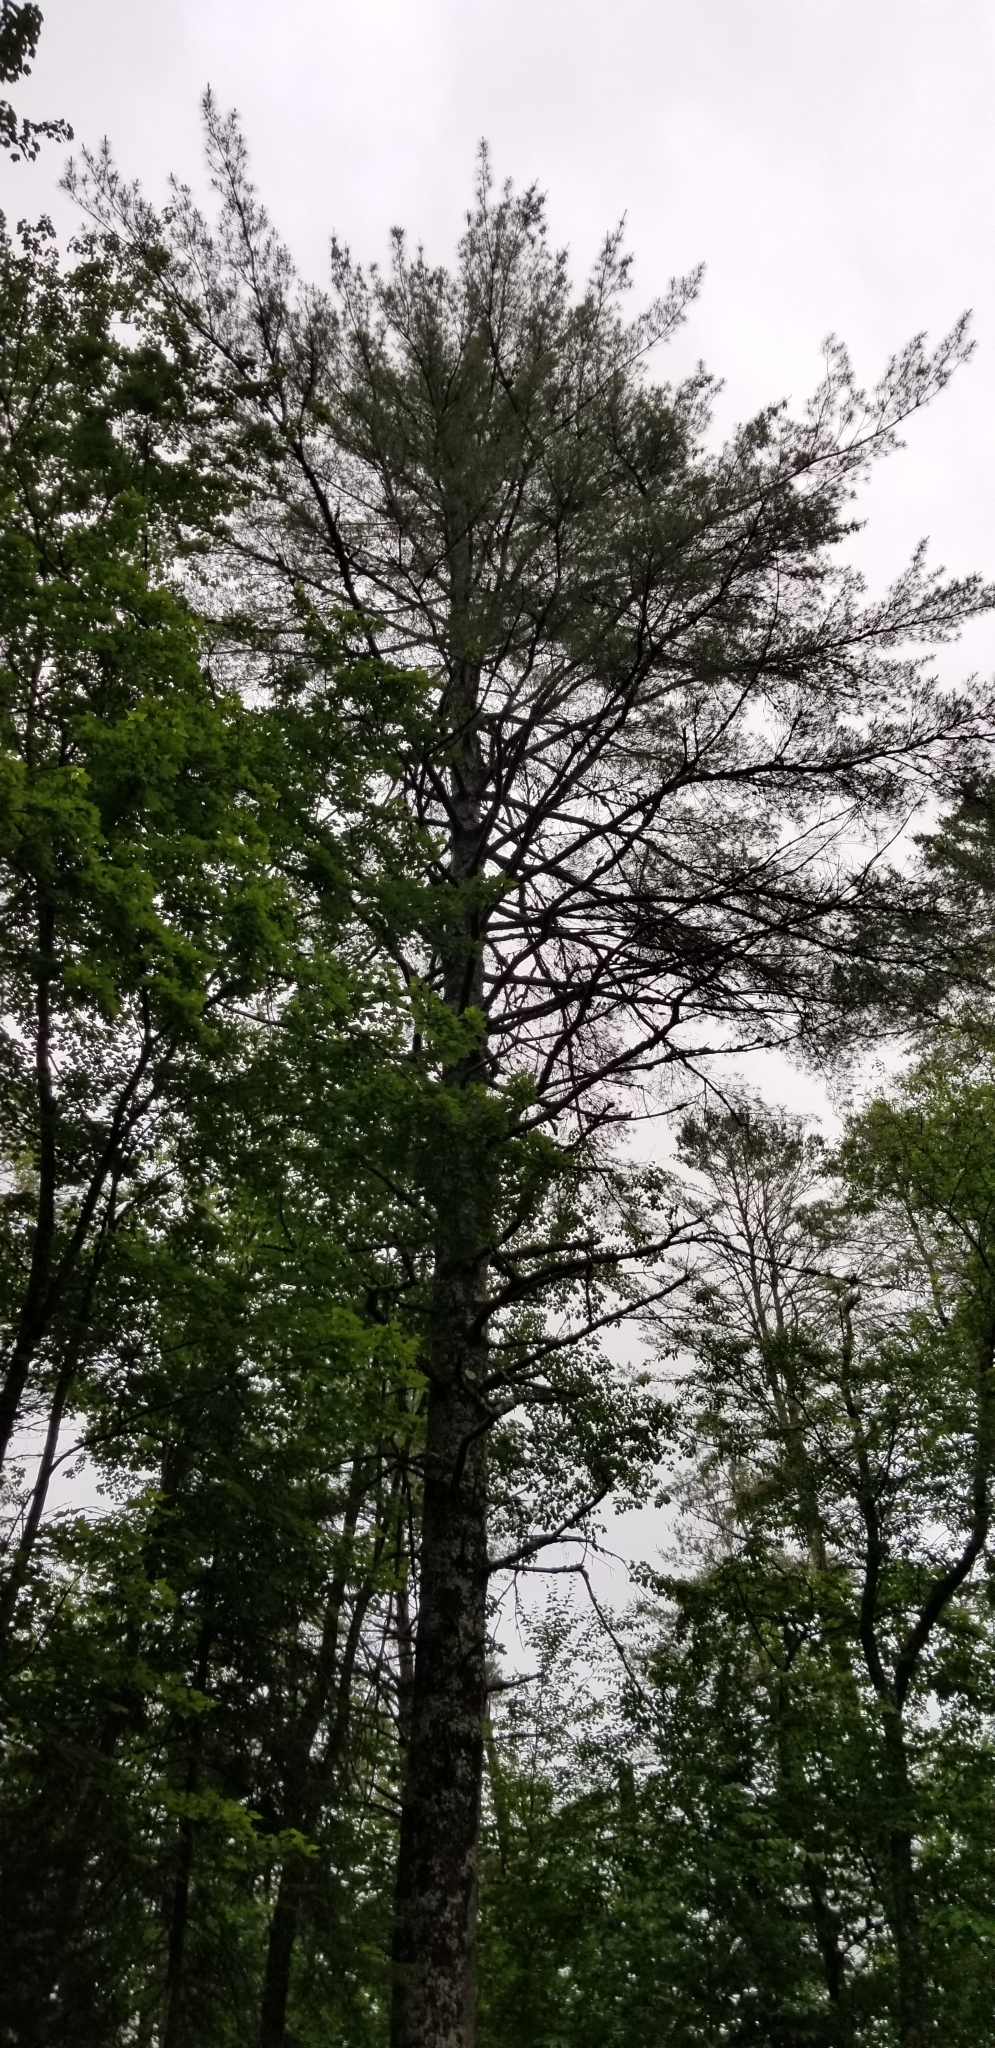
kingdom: Plantae
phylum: Tracheophyta
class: Pinopsida
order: Pinales
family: Pinaceae
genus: Pinus
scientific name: Pinus strobus
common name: Weymouth pine
